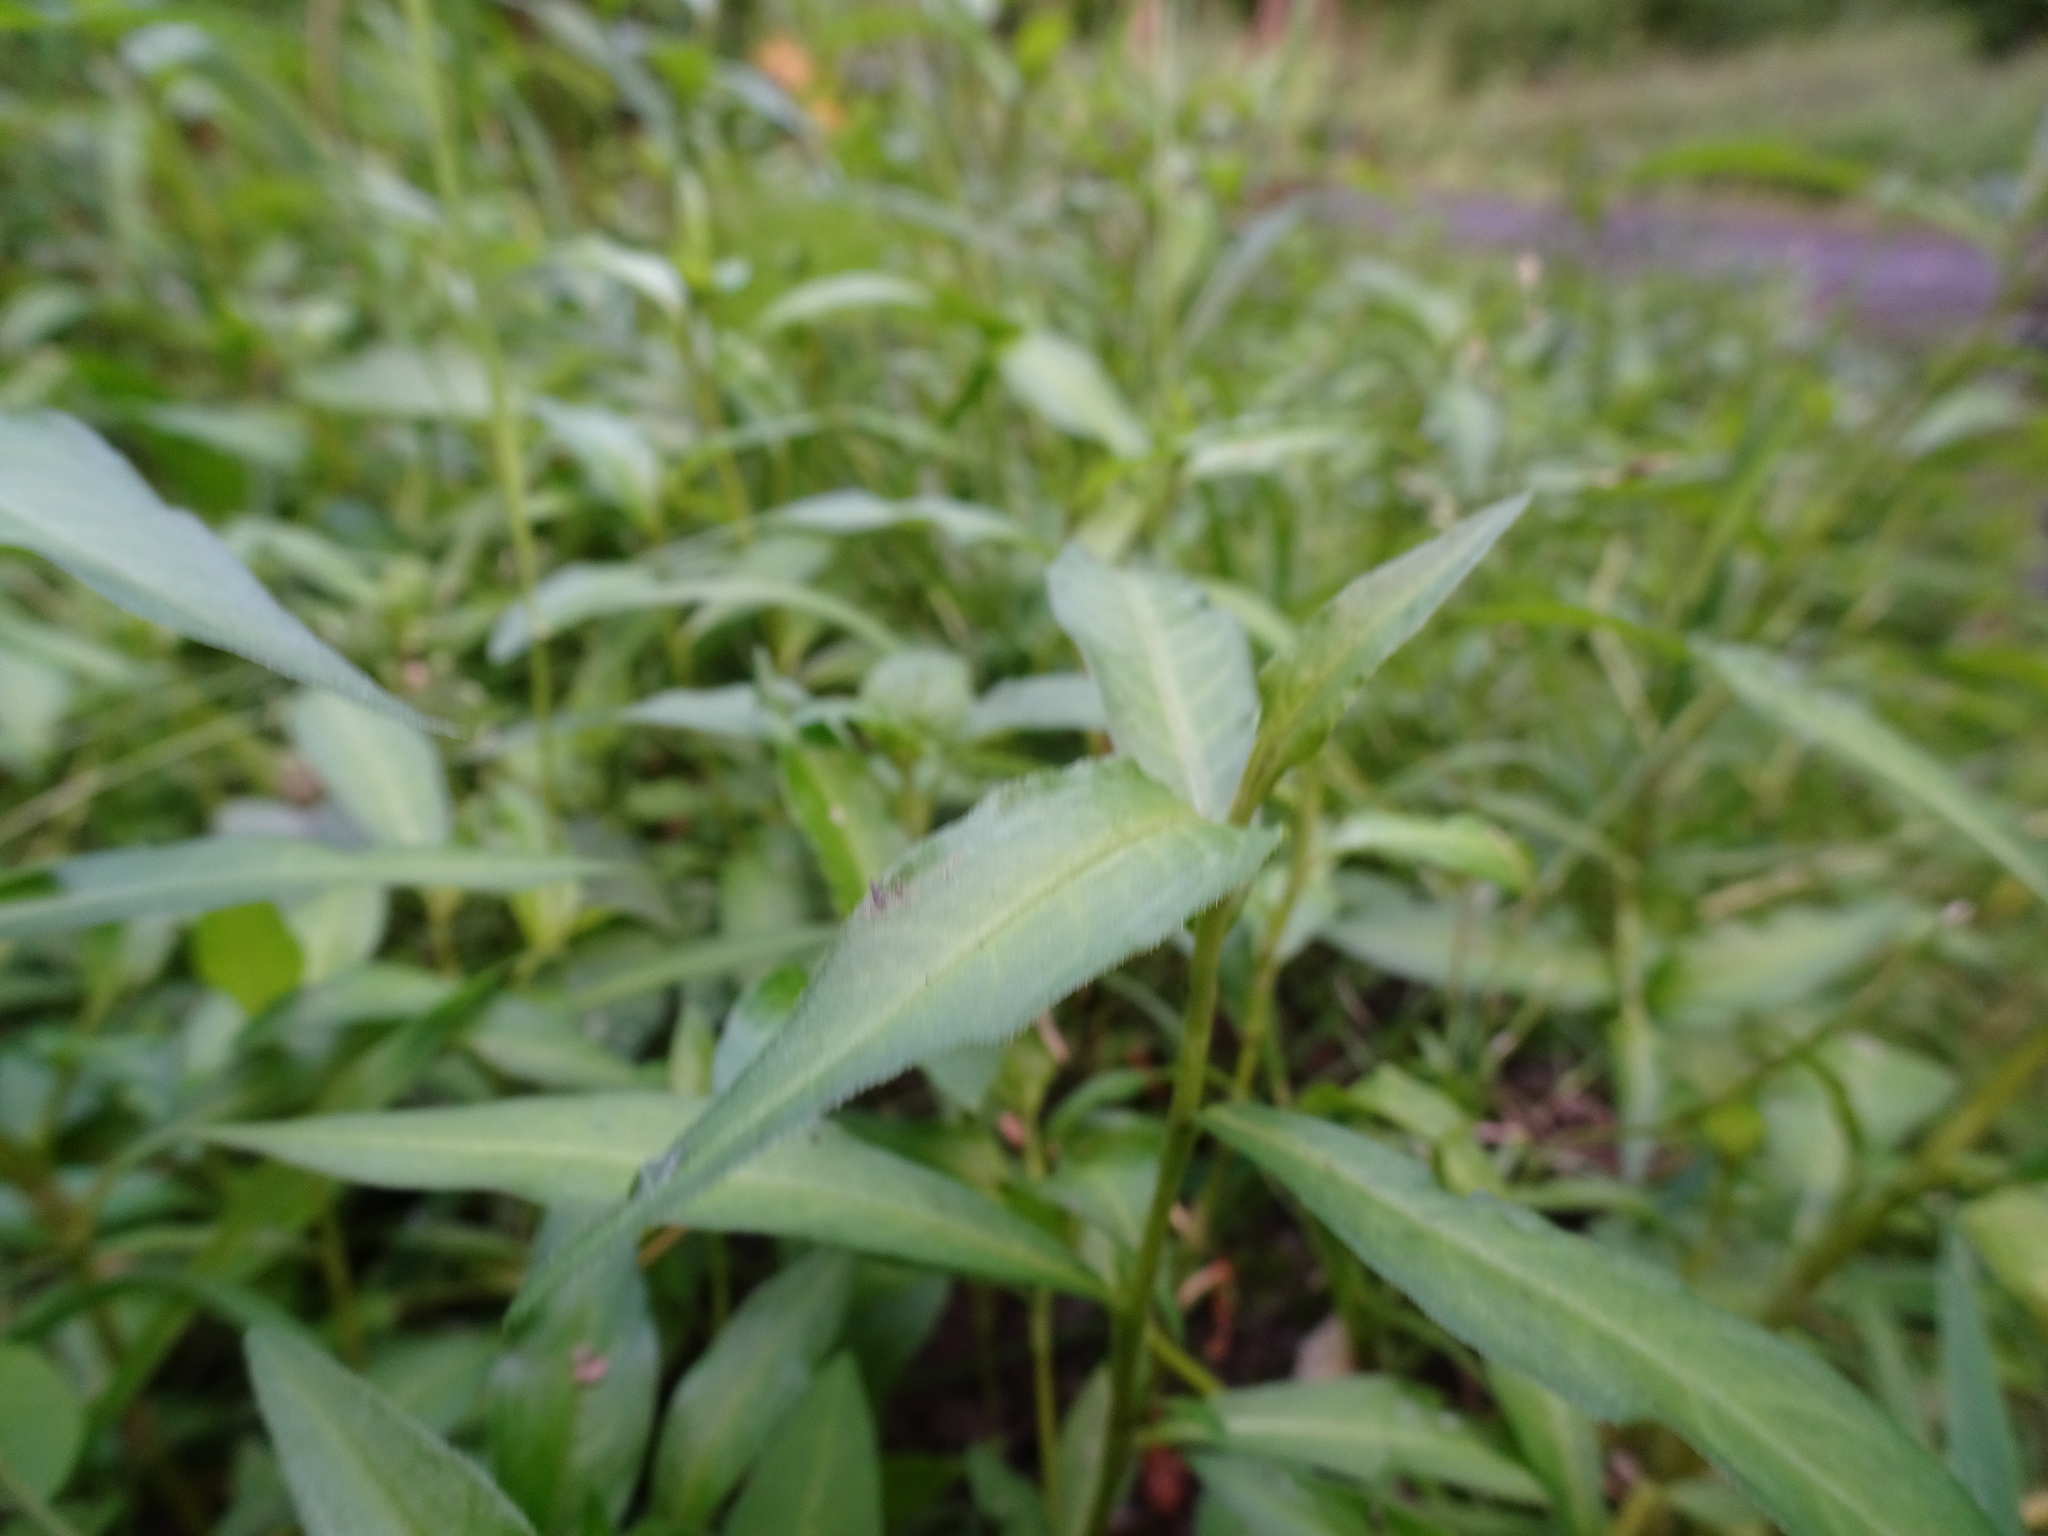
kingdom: Plantae
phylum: Tracheophyta
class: Magnoliopsida
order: Caryophyllales
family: Polygonaceae
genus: Persicaria
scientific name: Persicaria hydropiper
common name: Water-pepper
